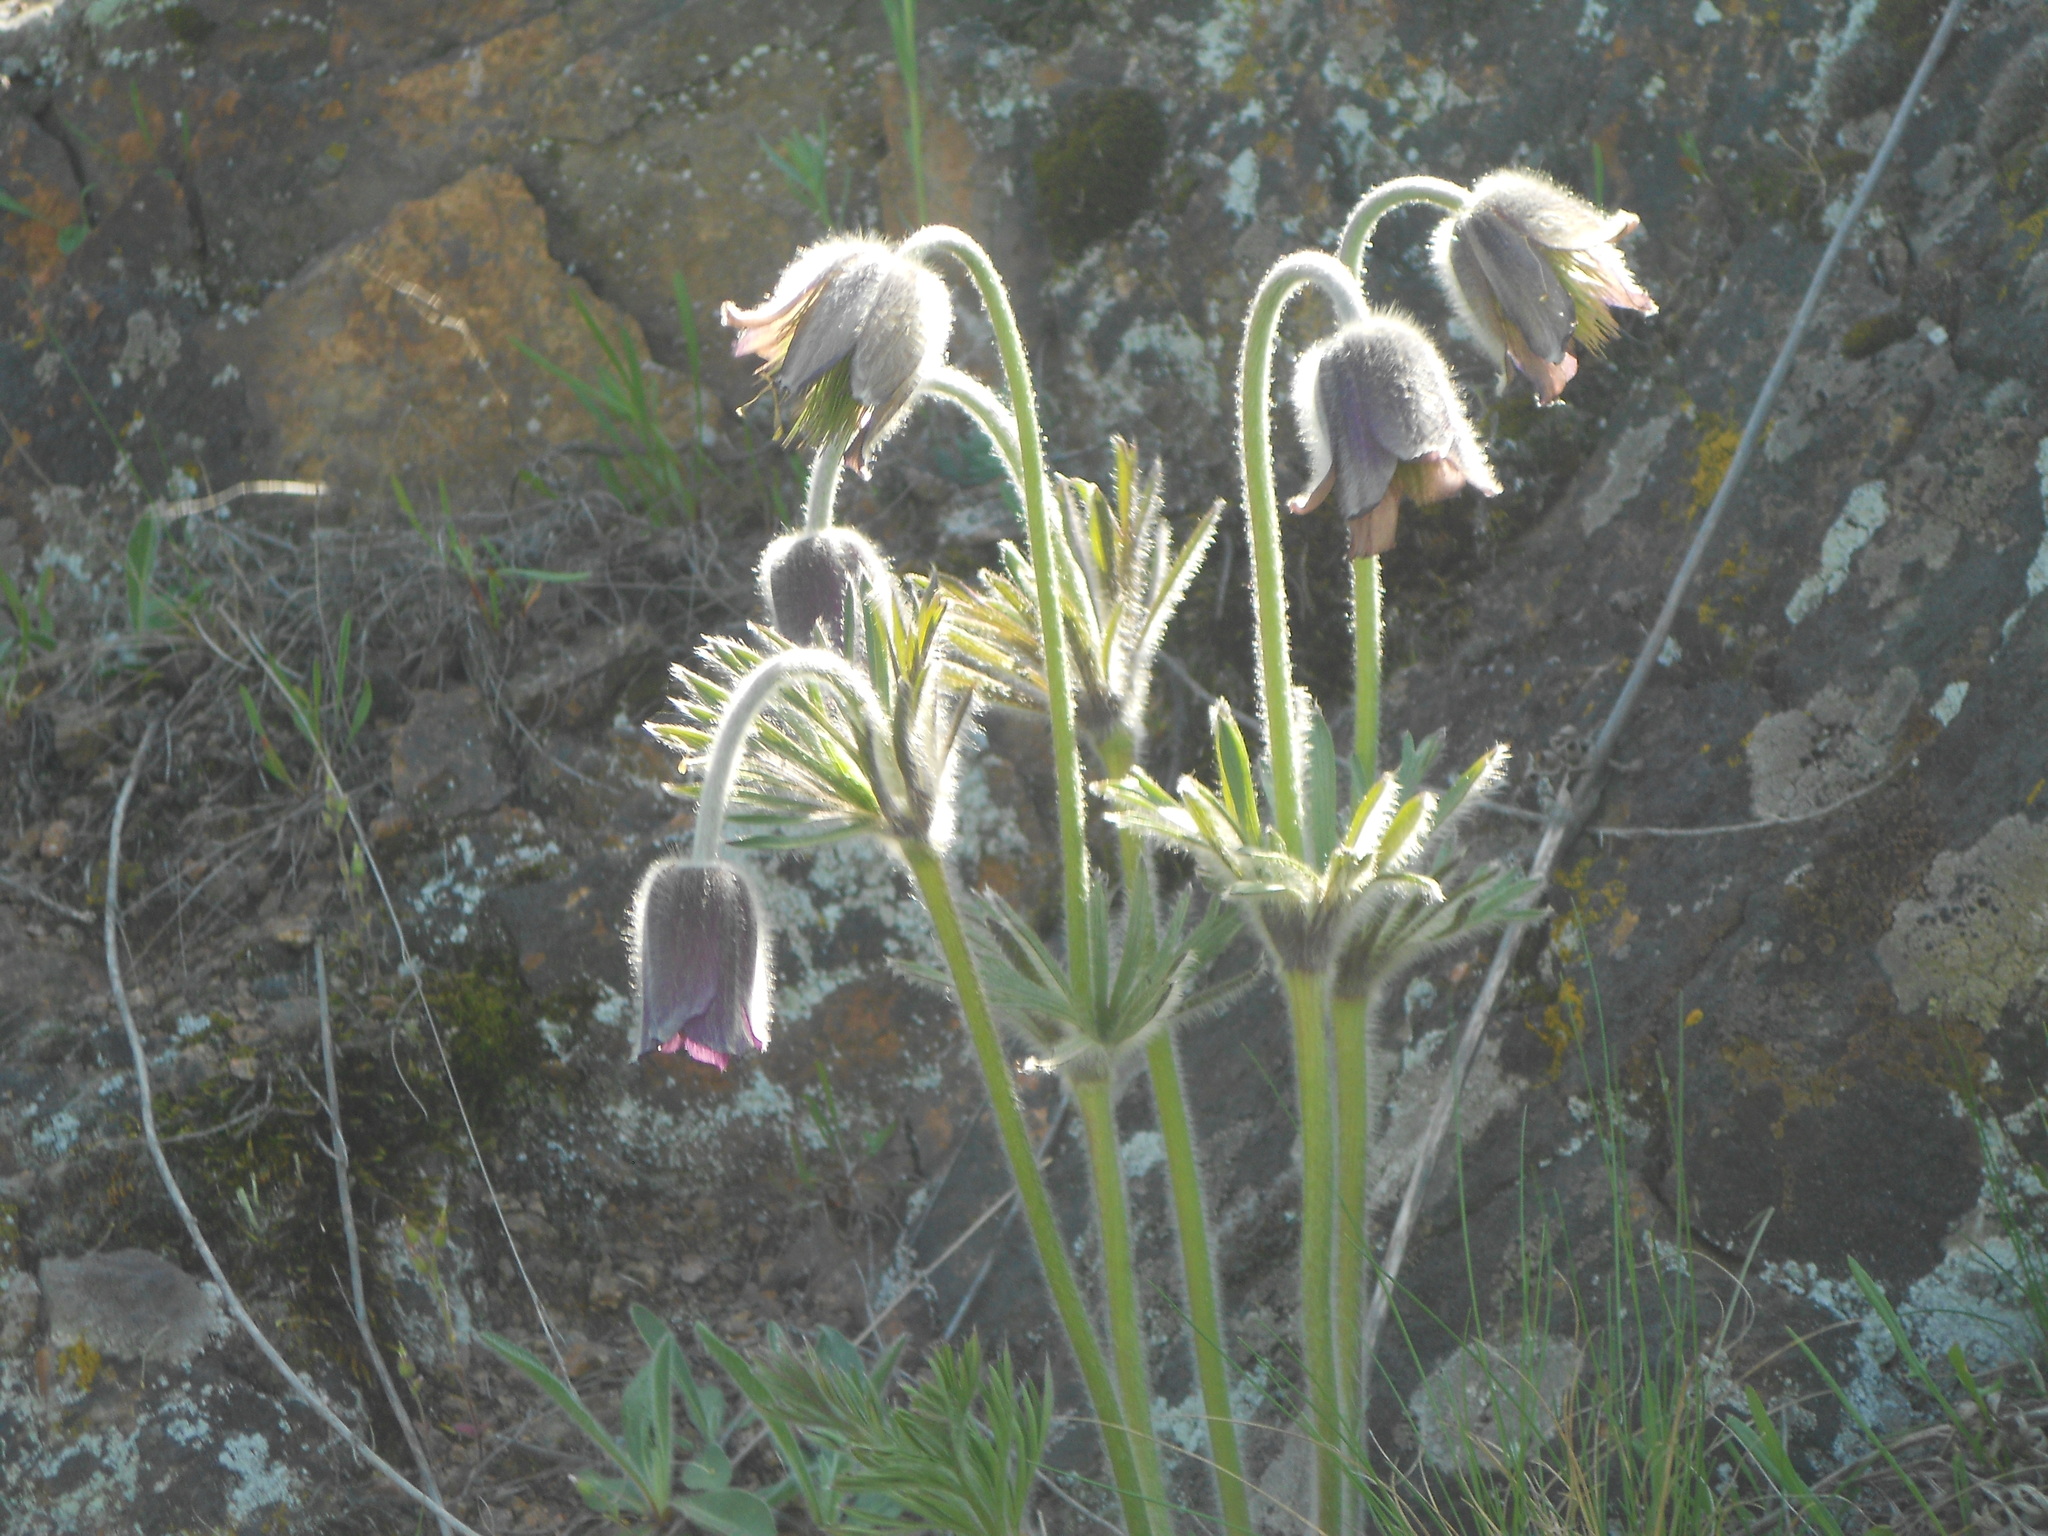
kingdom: Plantae
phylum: Tracheophyta
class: Magnoliopsida
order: Ranunculales
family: Ranunculaceae
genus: Pulsatilla
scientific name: Pulsatilla pratensis
